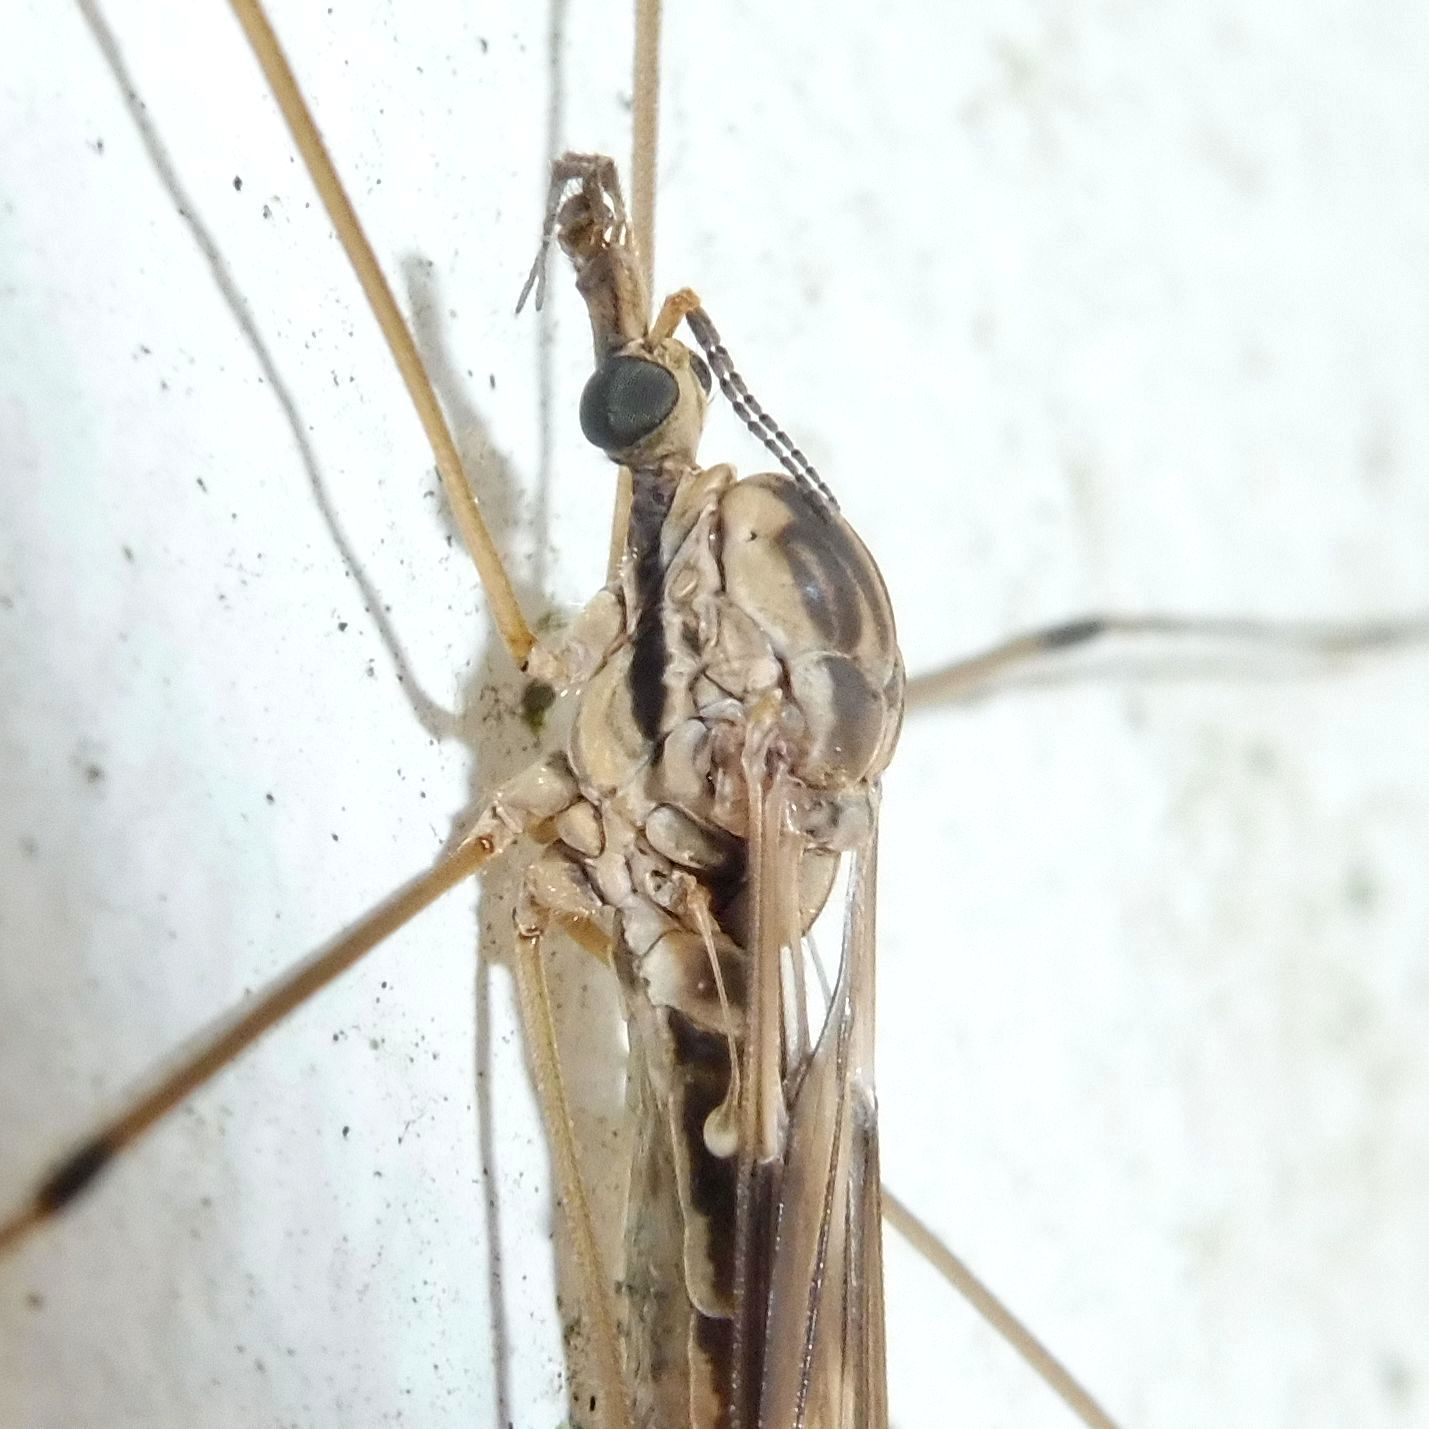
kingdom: Animalia
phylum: Arthropoda
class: Insecta
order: Diptera
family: Tipulidae
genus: Tipula
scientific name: Tipula rufina
